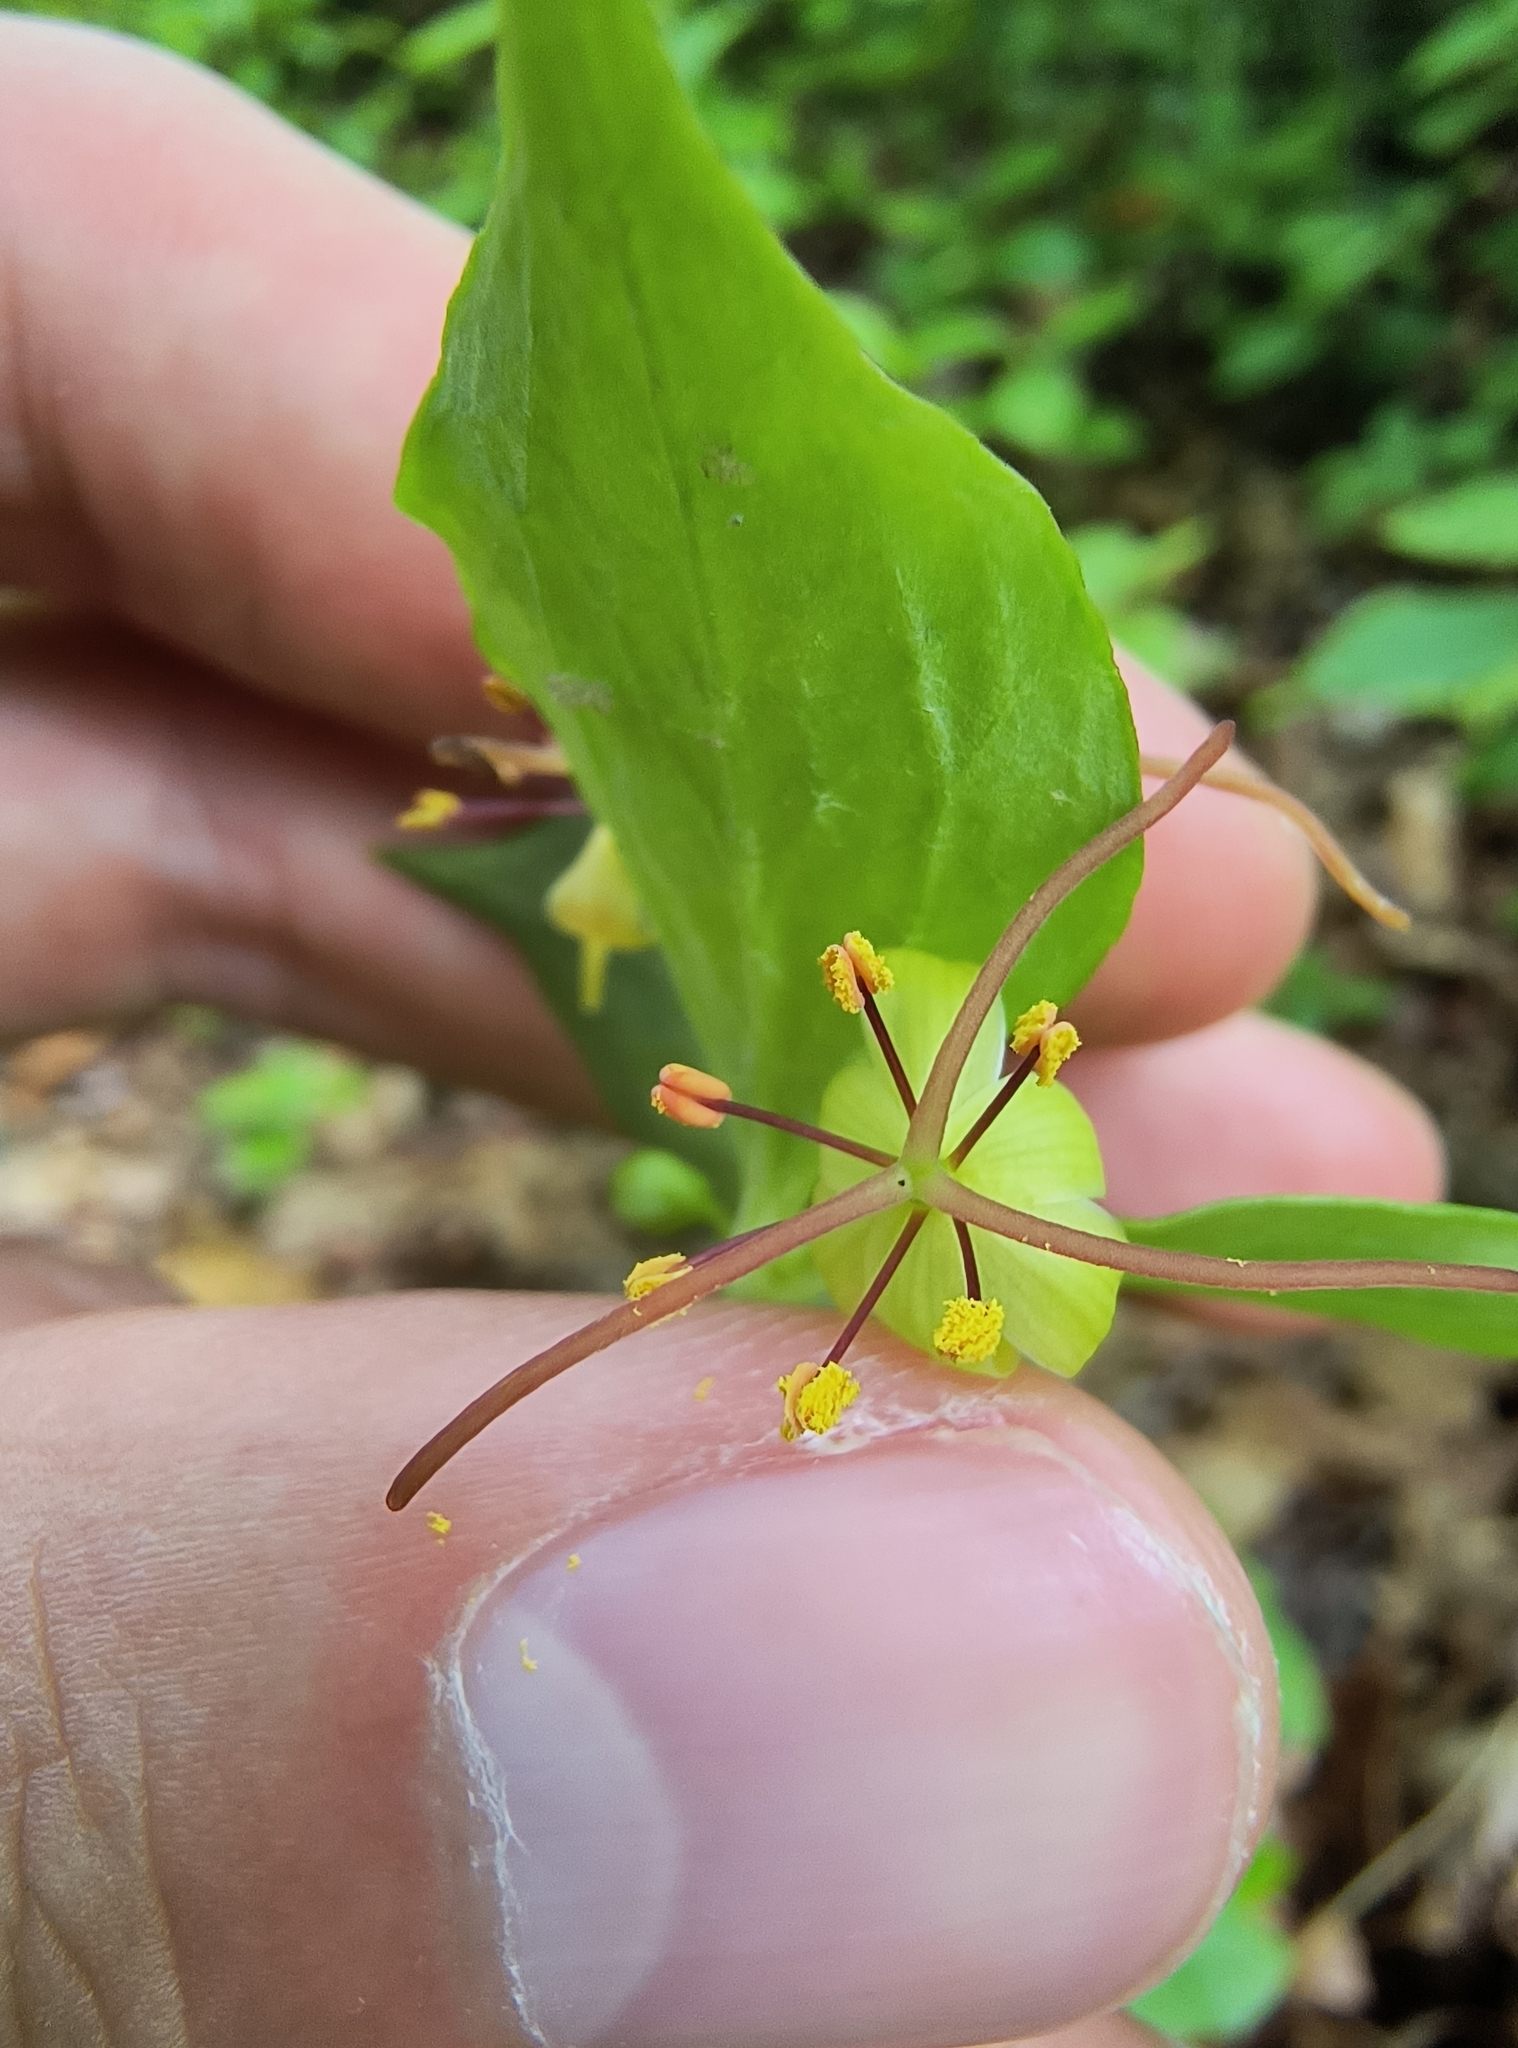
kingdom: Plantae
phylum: Tracheophyta
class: Liliopsida
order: Liliales
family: Liliaceae
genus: Medeola
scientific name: Medeola virginiana
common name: Indian cucumber-root
